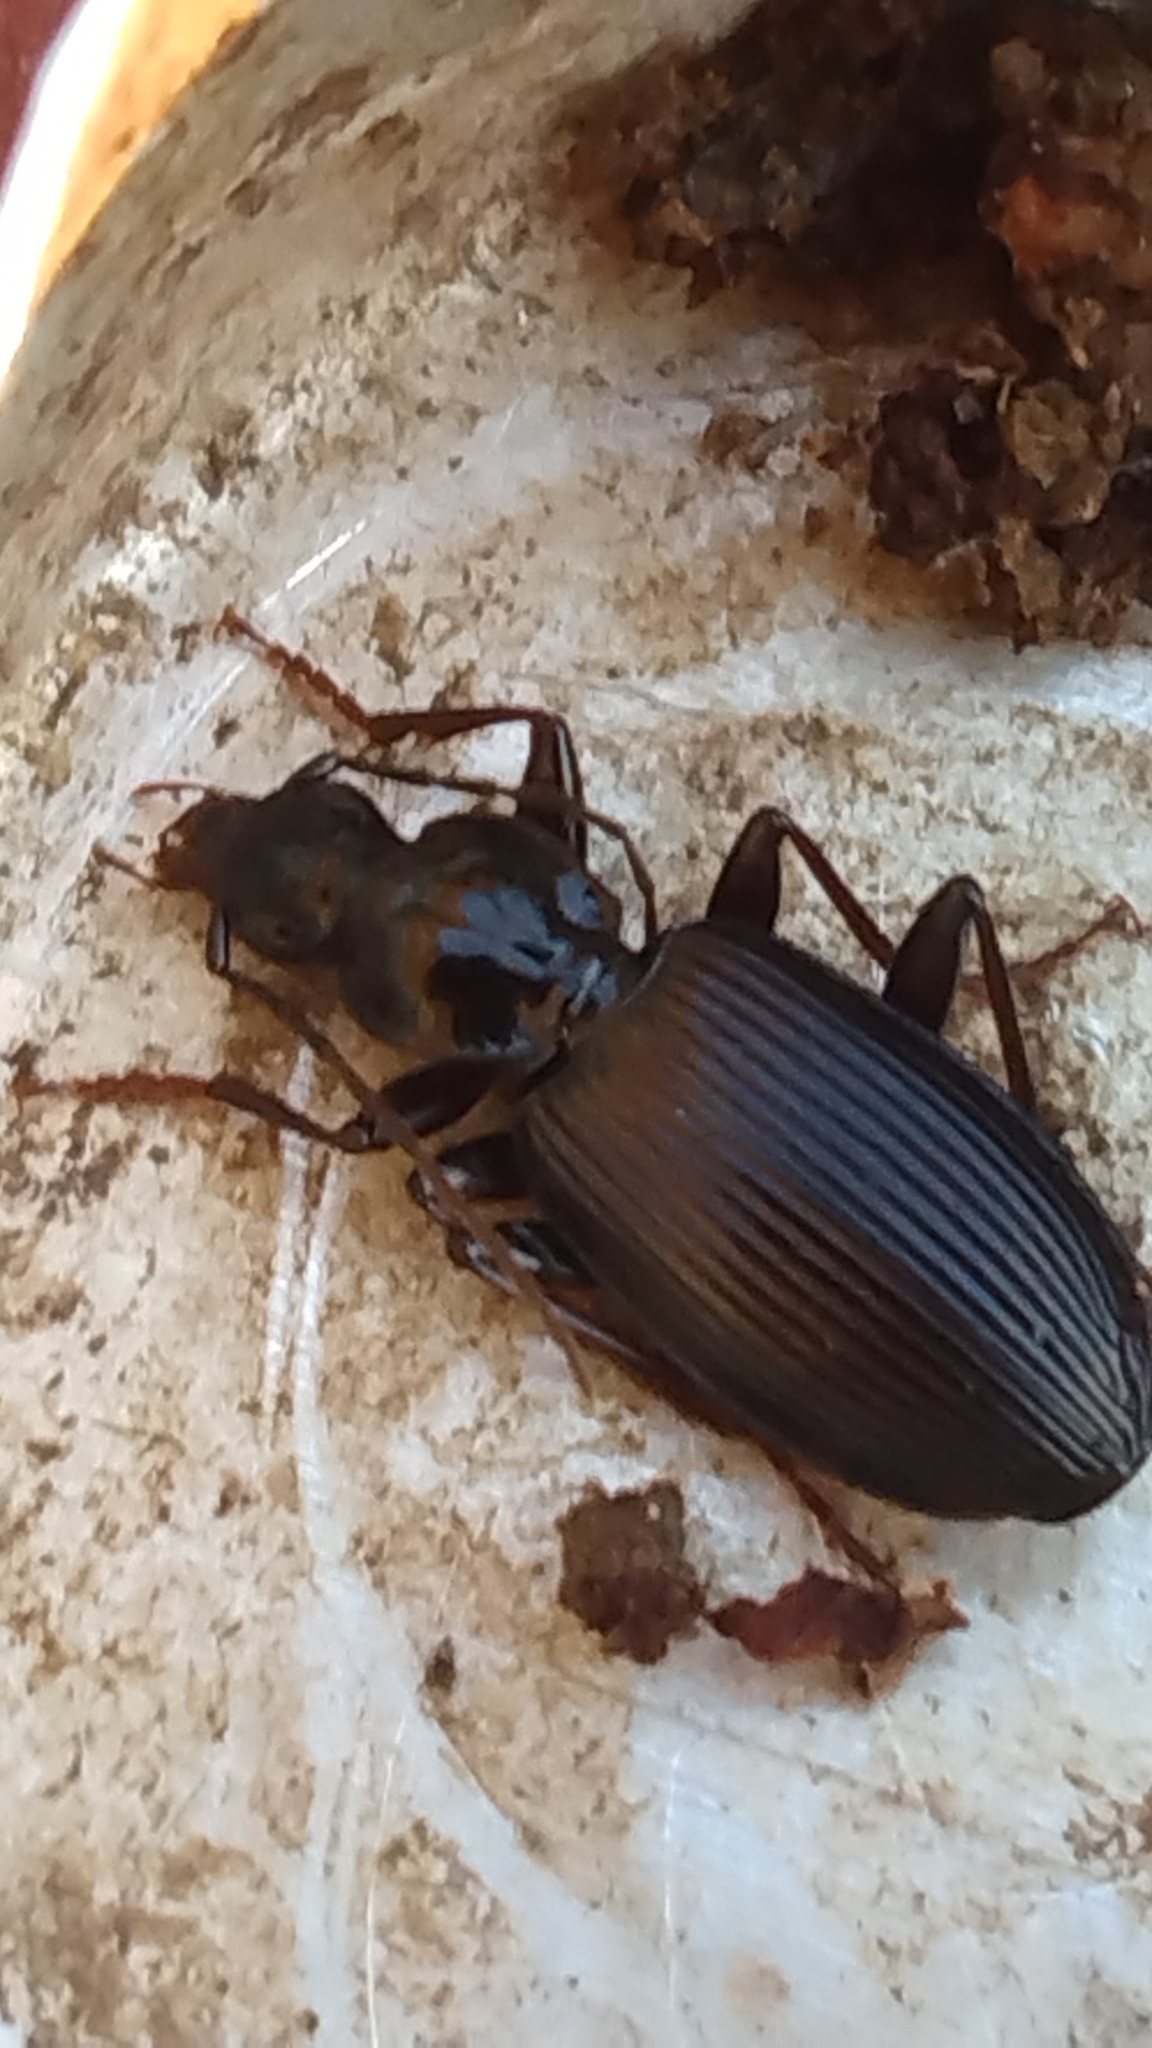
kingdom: Animalia
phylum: Arthropoda
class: Insecta
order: Coleoptera
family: Carabidae
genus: Platynus
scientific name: Platynus decentis
